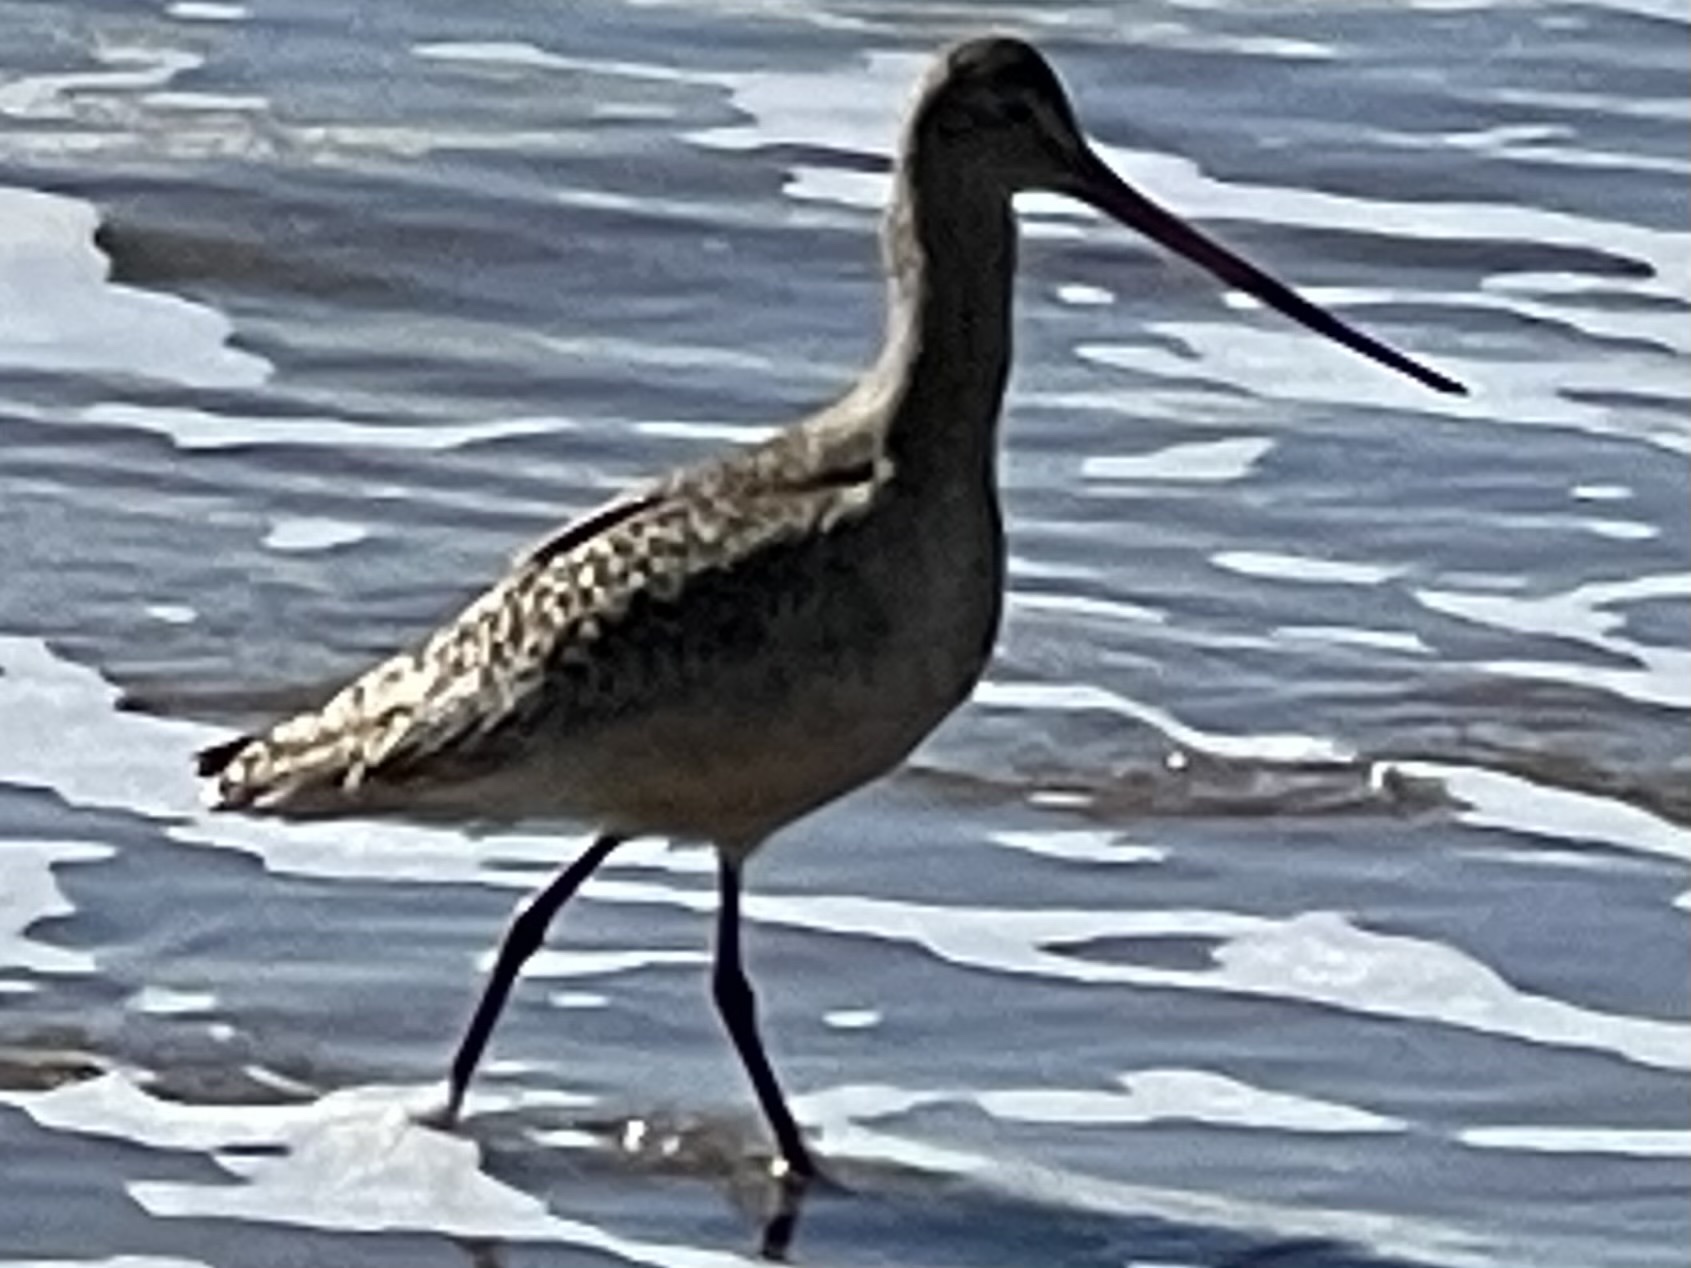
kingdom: Animalia
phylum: Chordata
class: Aves
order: Charadriiformes
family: Scolopacidae
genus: Limosa
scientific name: Limosa fedoa
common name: Marbled godwit
